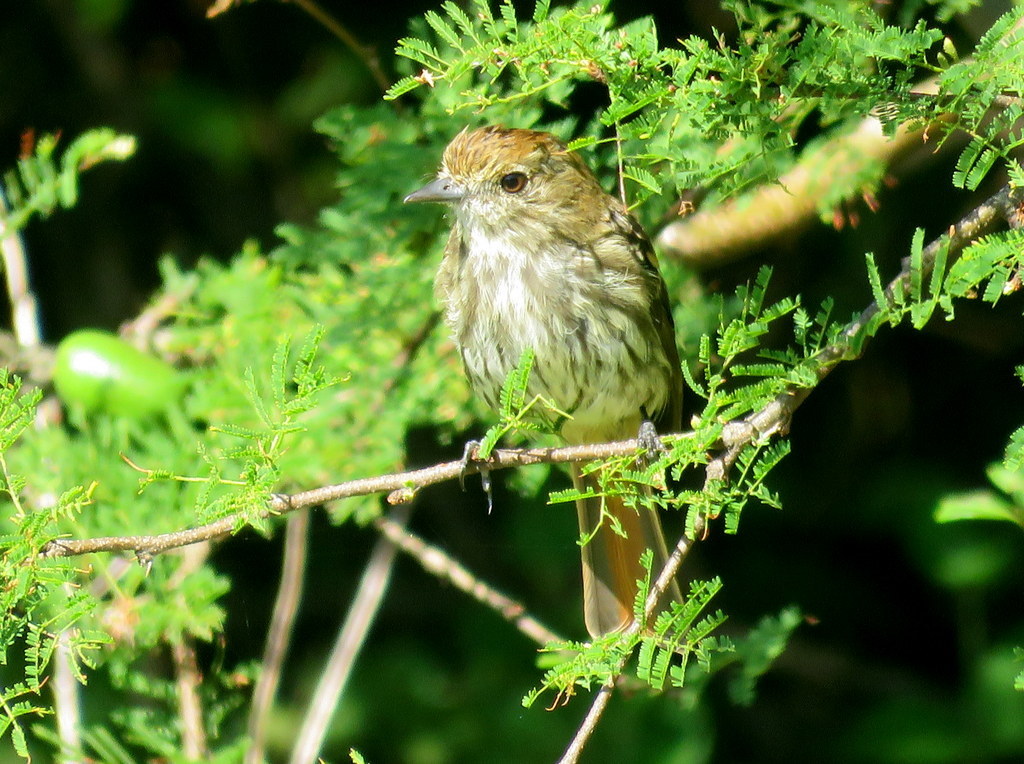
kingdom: Animalia
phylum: Chordata
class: Aves
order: Passeriformes
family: Tyrannidae
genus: Knipolegus
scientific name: Knipolegus cyanirostris
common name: Blue-billed black tyrant
